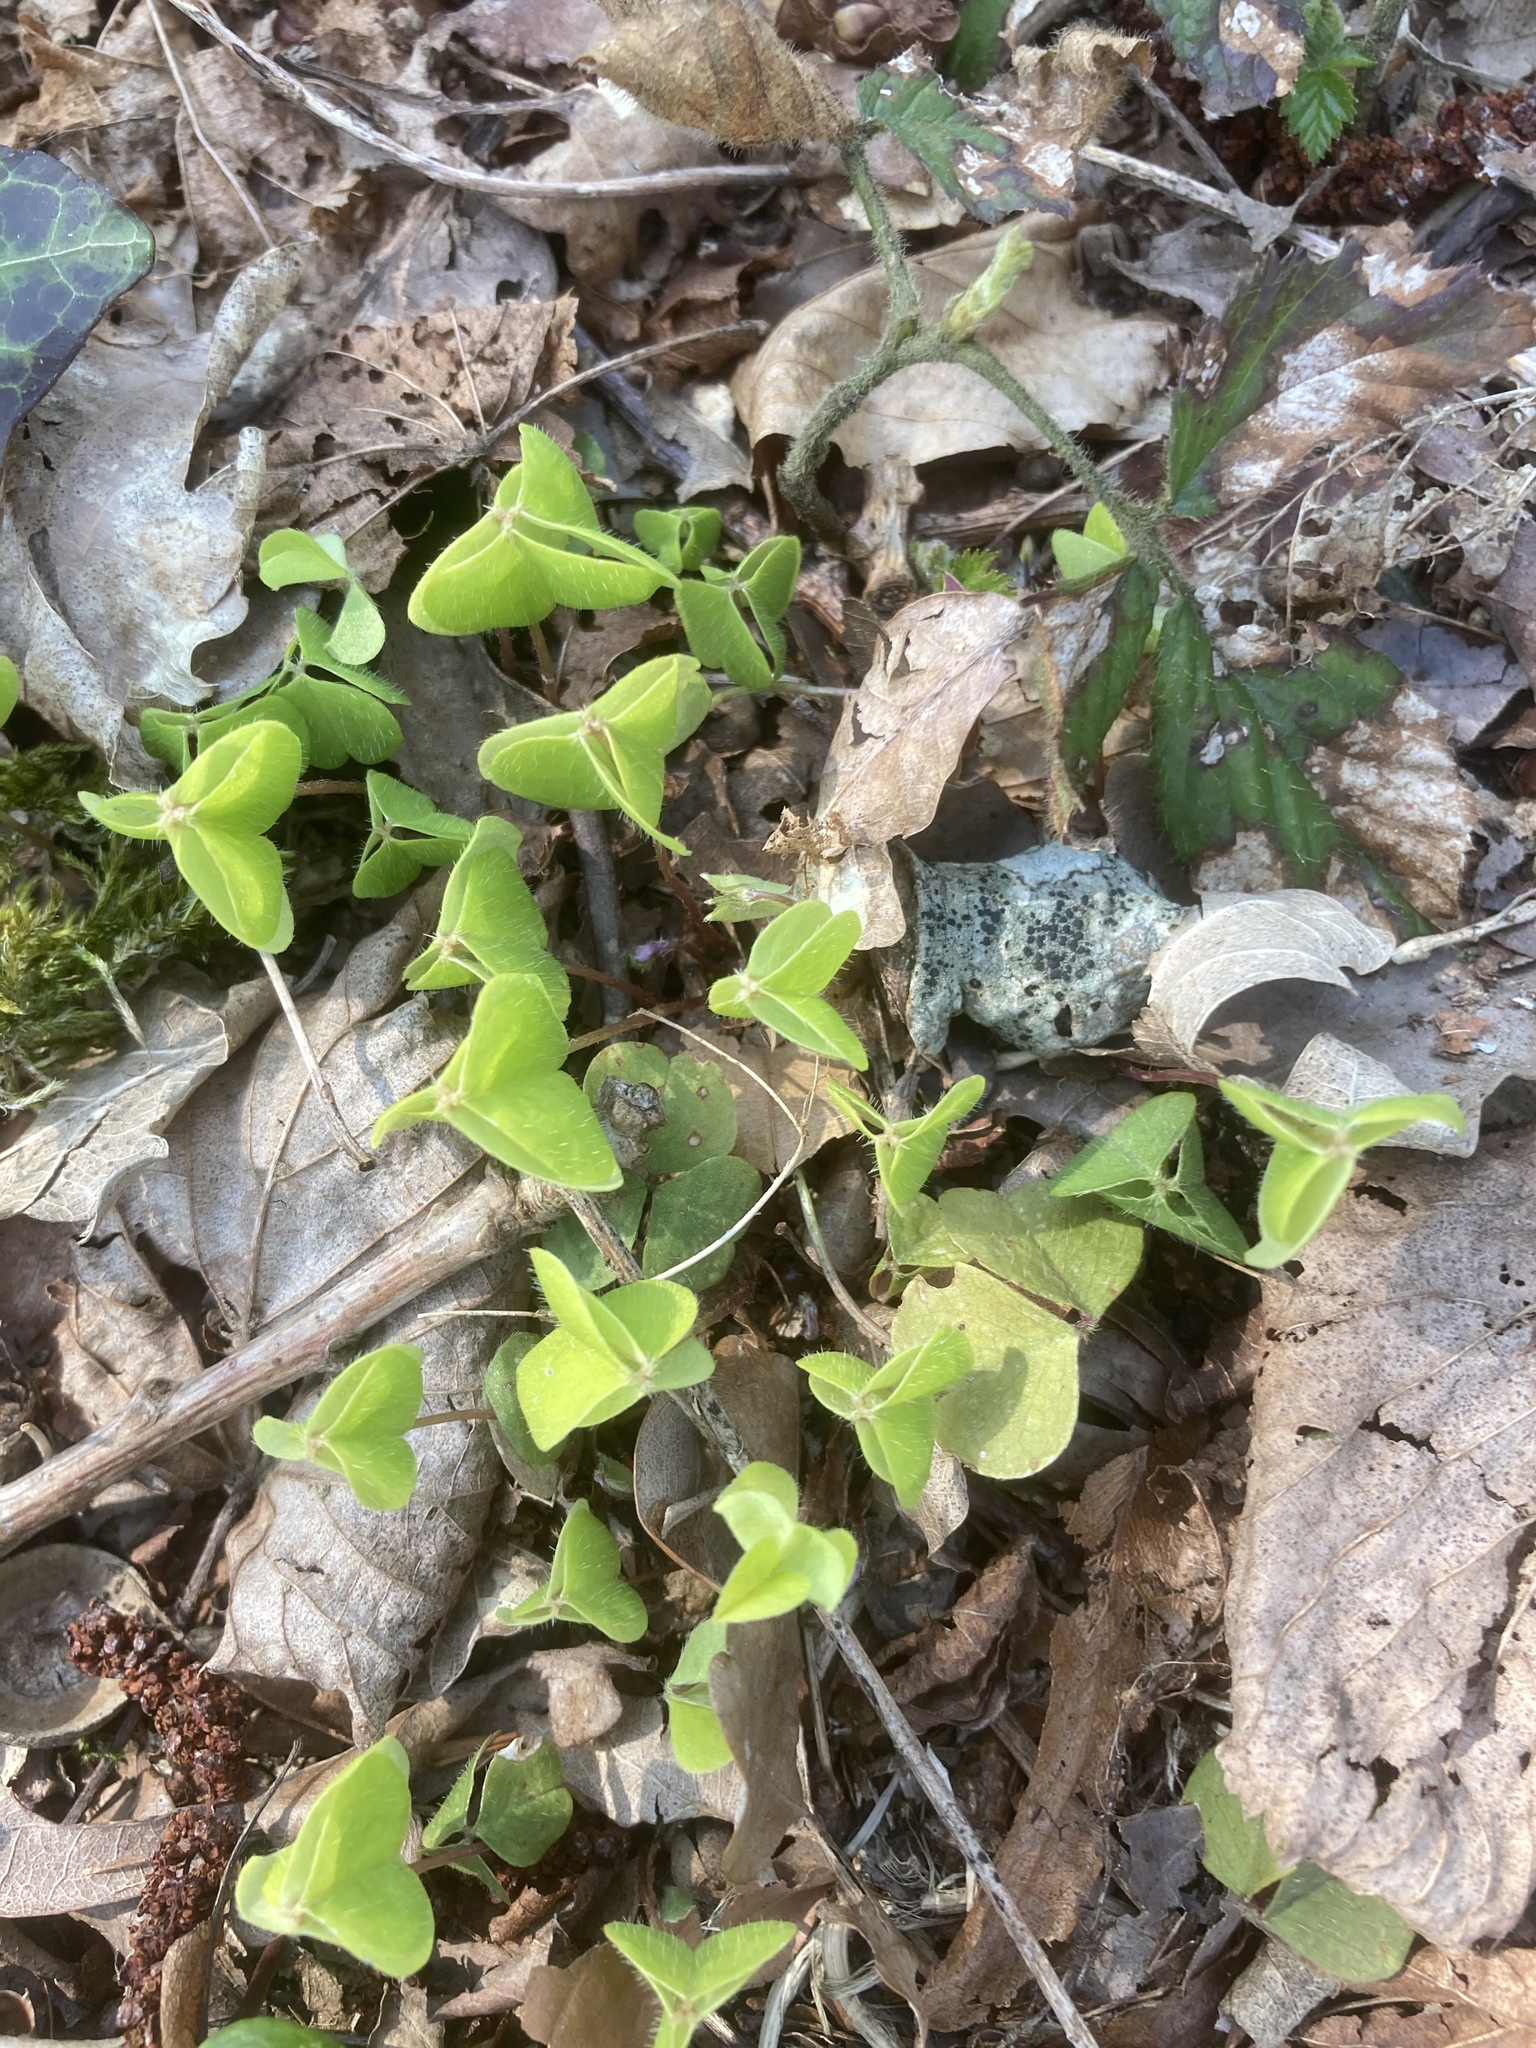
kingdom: Plantae
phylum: Tracheophyta
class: Magnoliopsida
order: Oxalidales
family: Oxalidaceae
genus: Oxalis
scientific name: Oxalis acetosella
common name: Wood-sorrel
